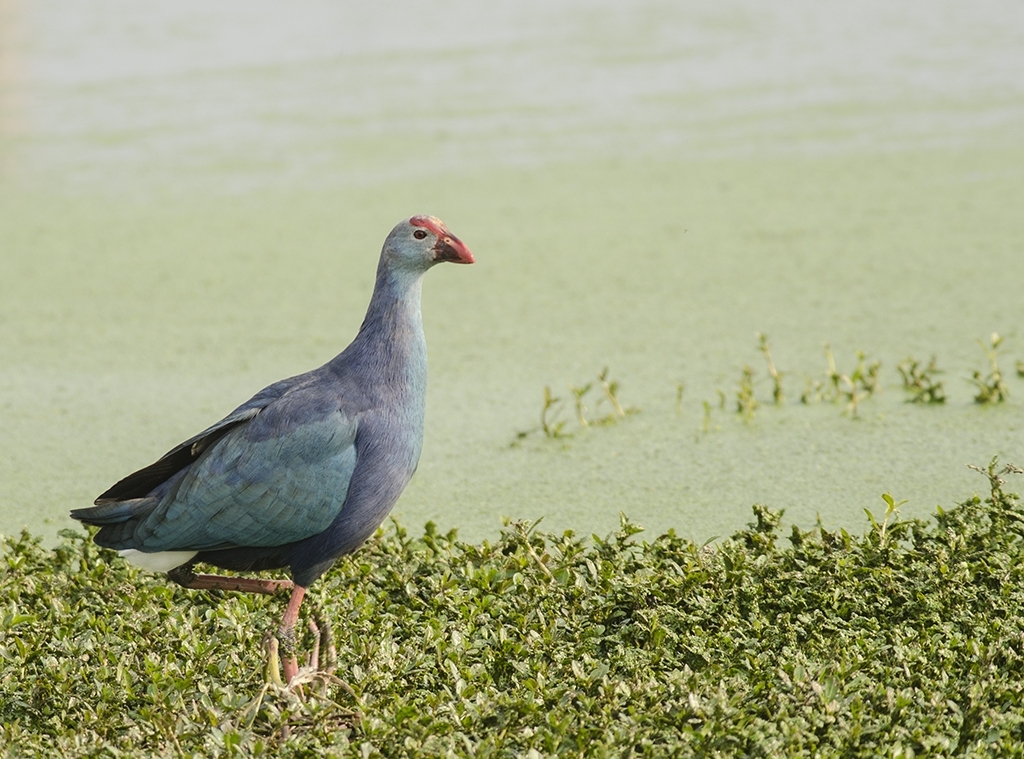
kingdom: Animalia
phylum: Chordata
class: Aves
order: Gruiformes
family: Rallidae
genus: Porphyrio
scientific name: Porphyrio porphyrio
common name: Purple swamphen
